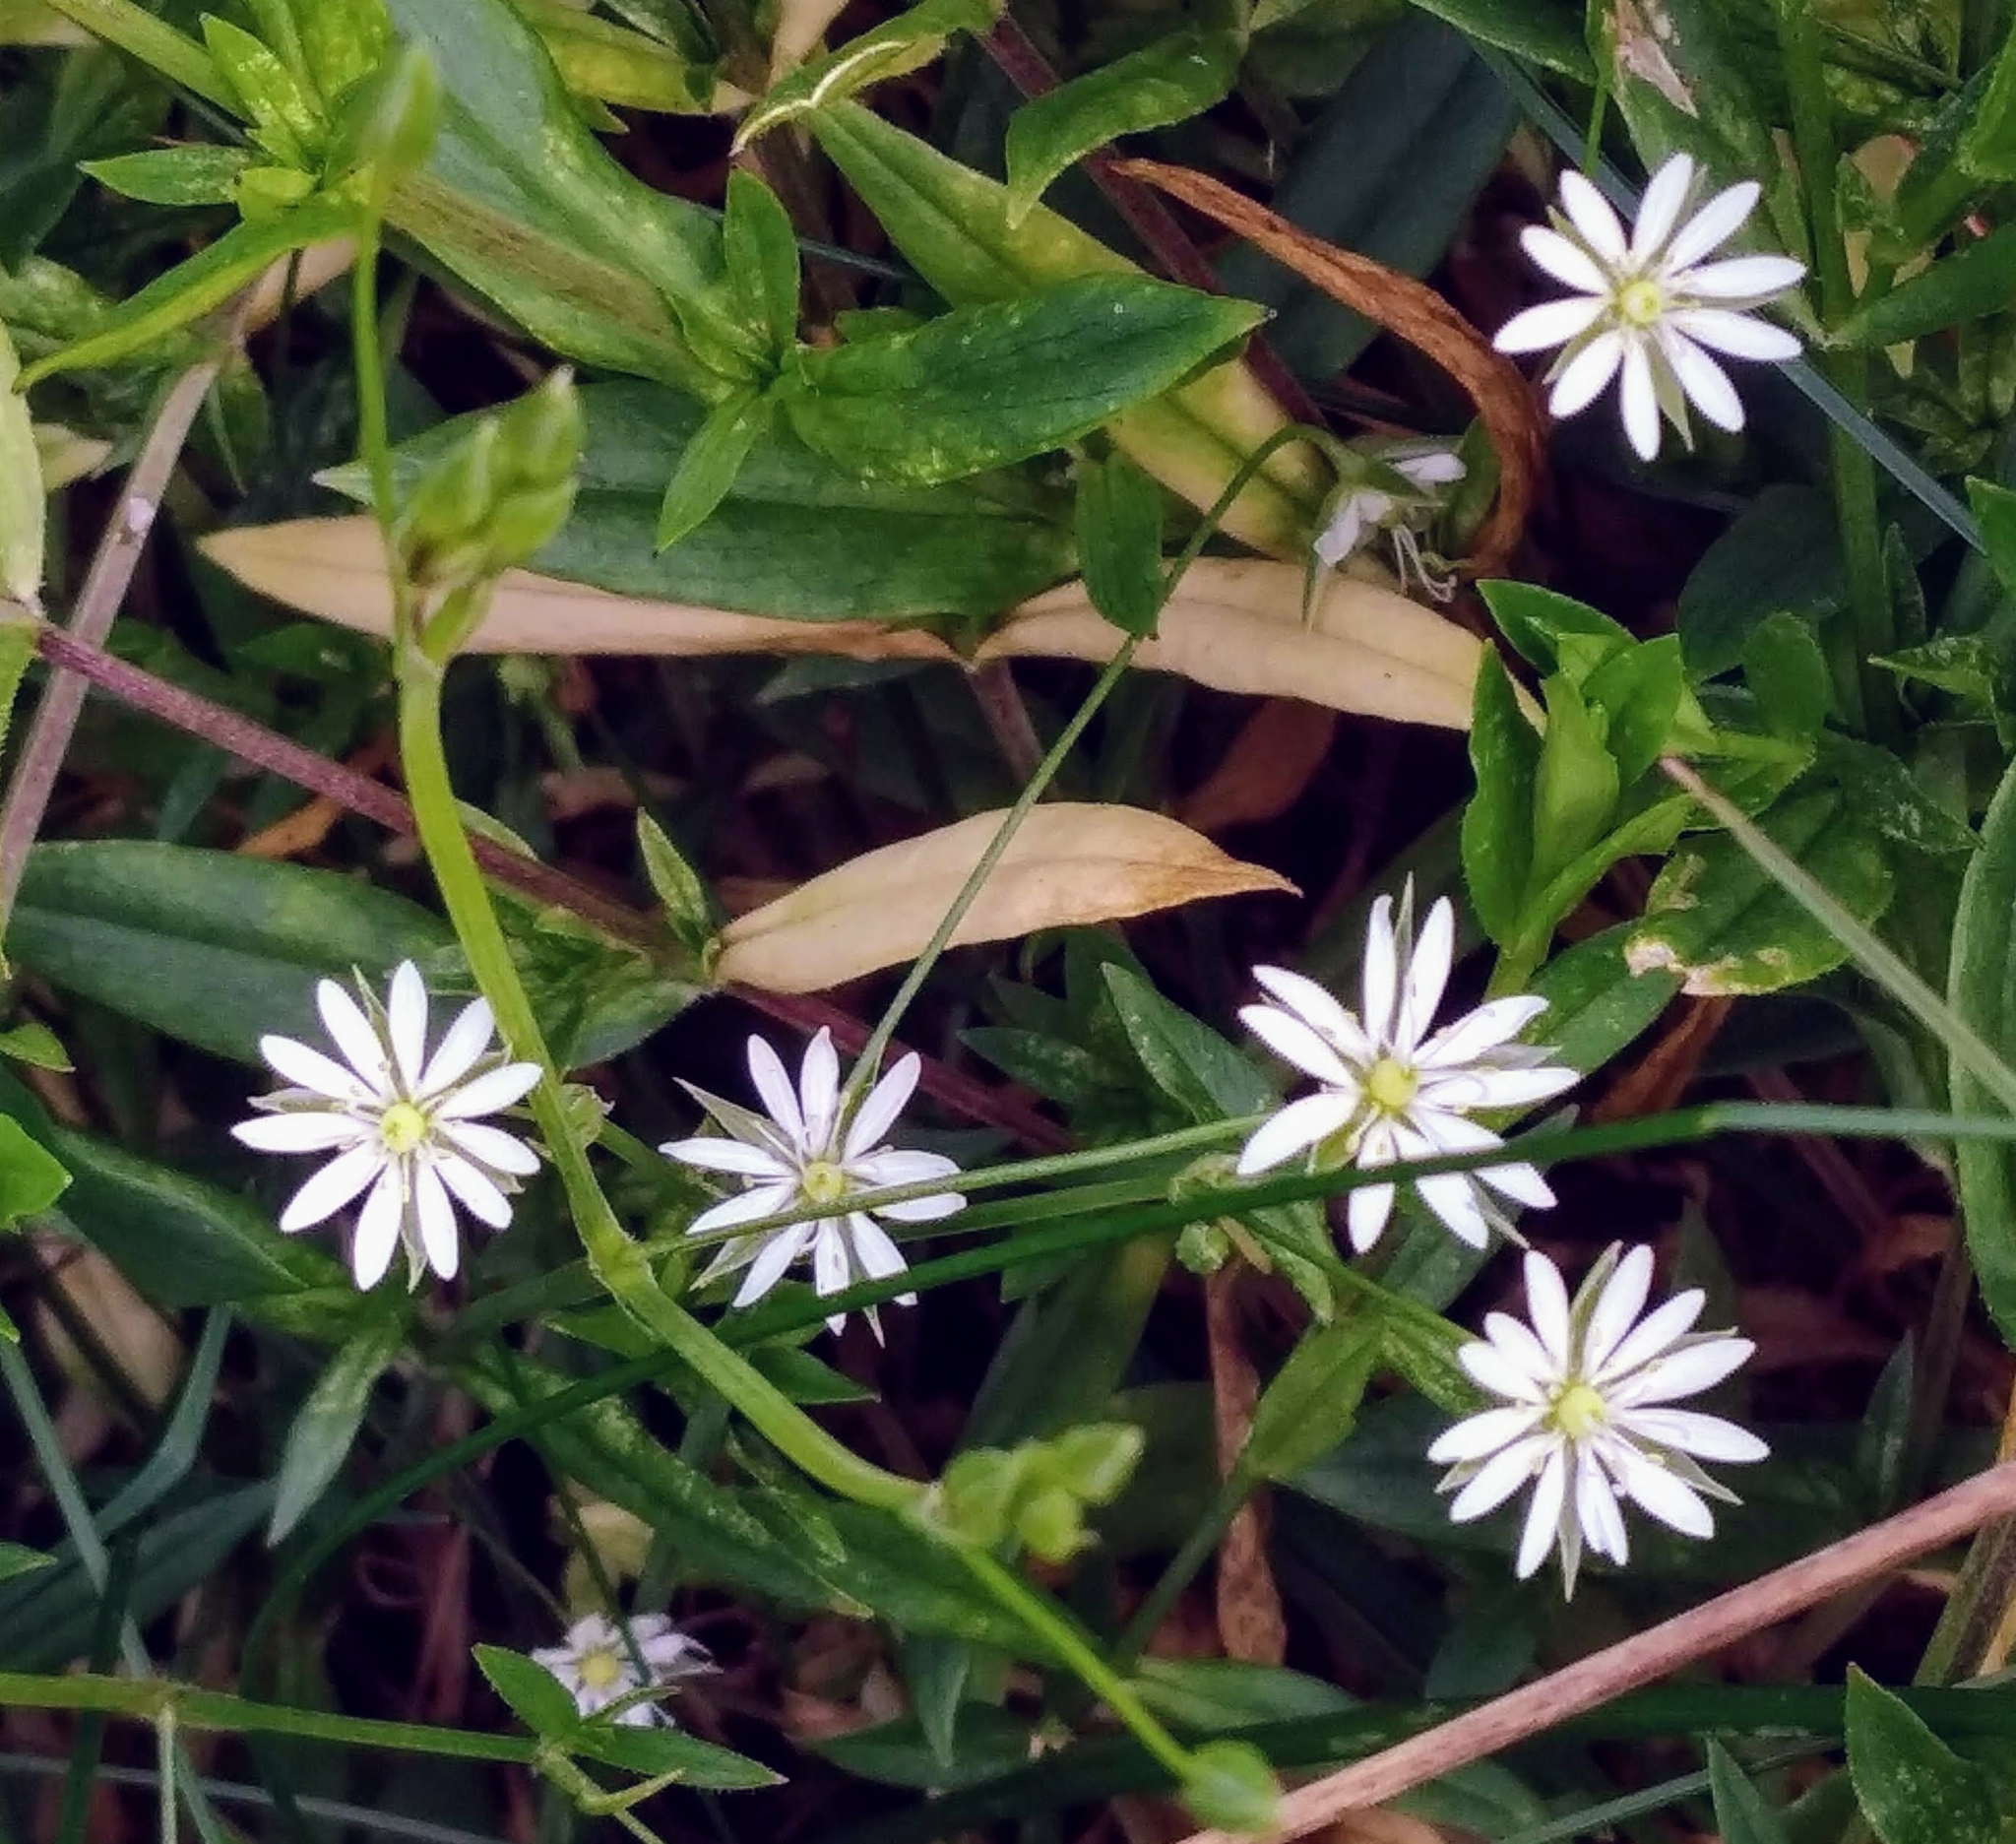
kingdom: Plantae
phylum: Tracheophyta
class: Magnoliopsida
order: Caryophyllales
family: Caryophyllaceae
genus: Stellaria
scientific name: Stellaria graminea
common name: Grass-like starwort
